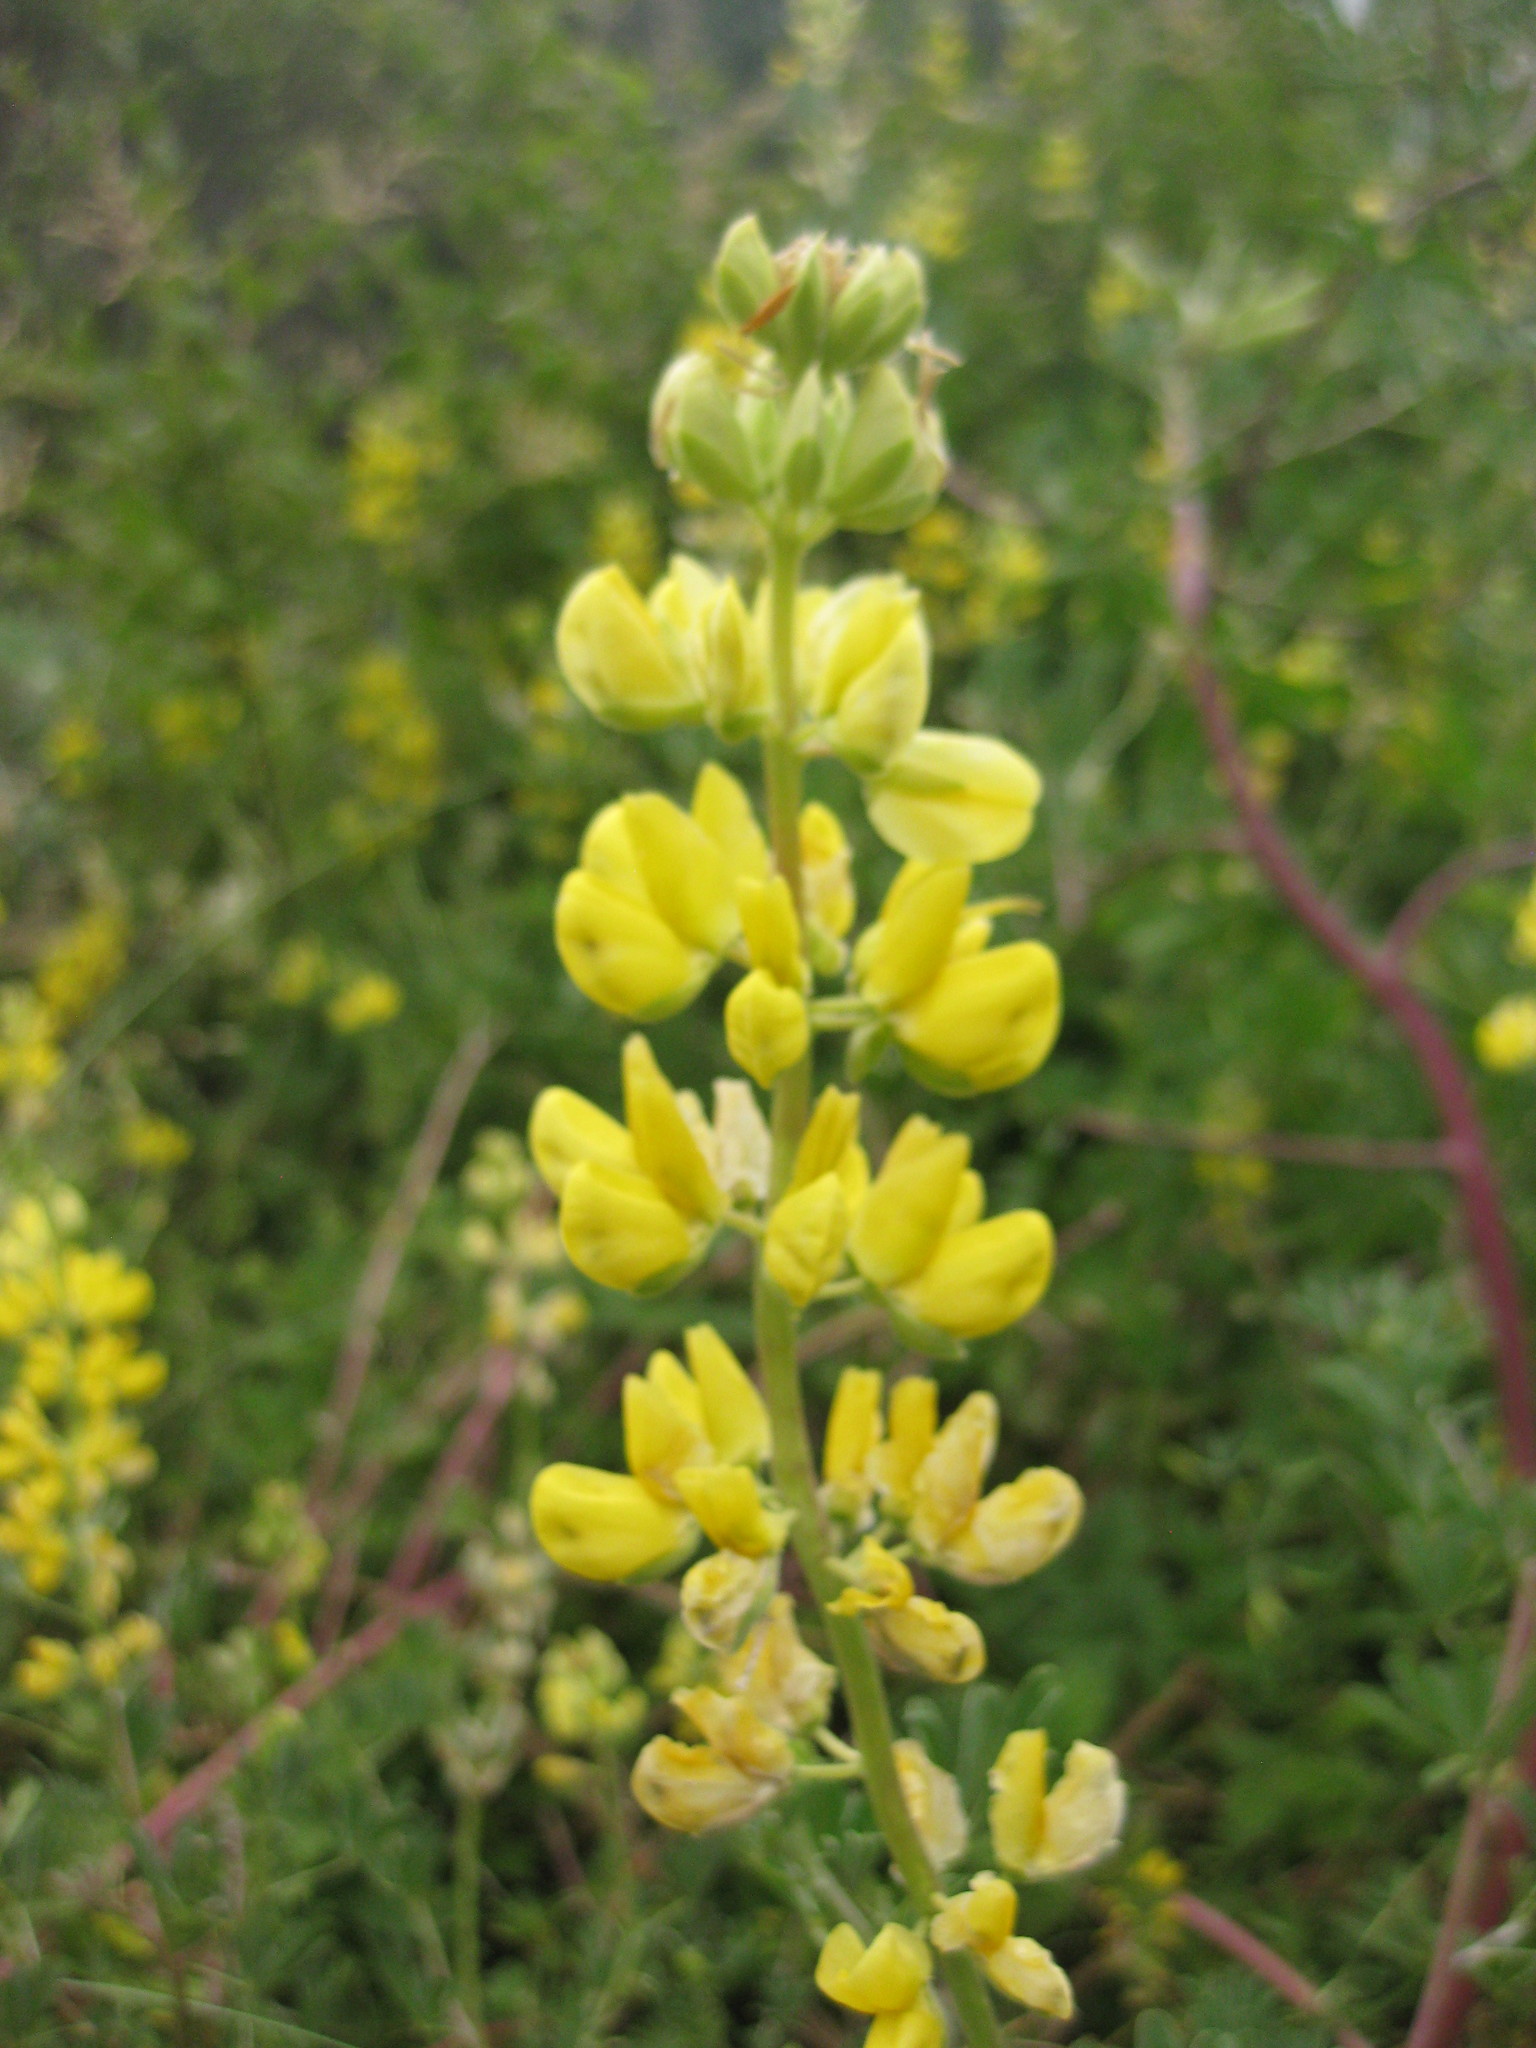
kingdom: Plantae
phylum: Tracheophyta
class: Magnoliopsida
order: Fabales
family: Fabaceae
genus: Lupinus
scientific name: Lupinus arboreus
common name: Yellow bush lupine
